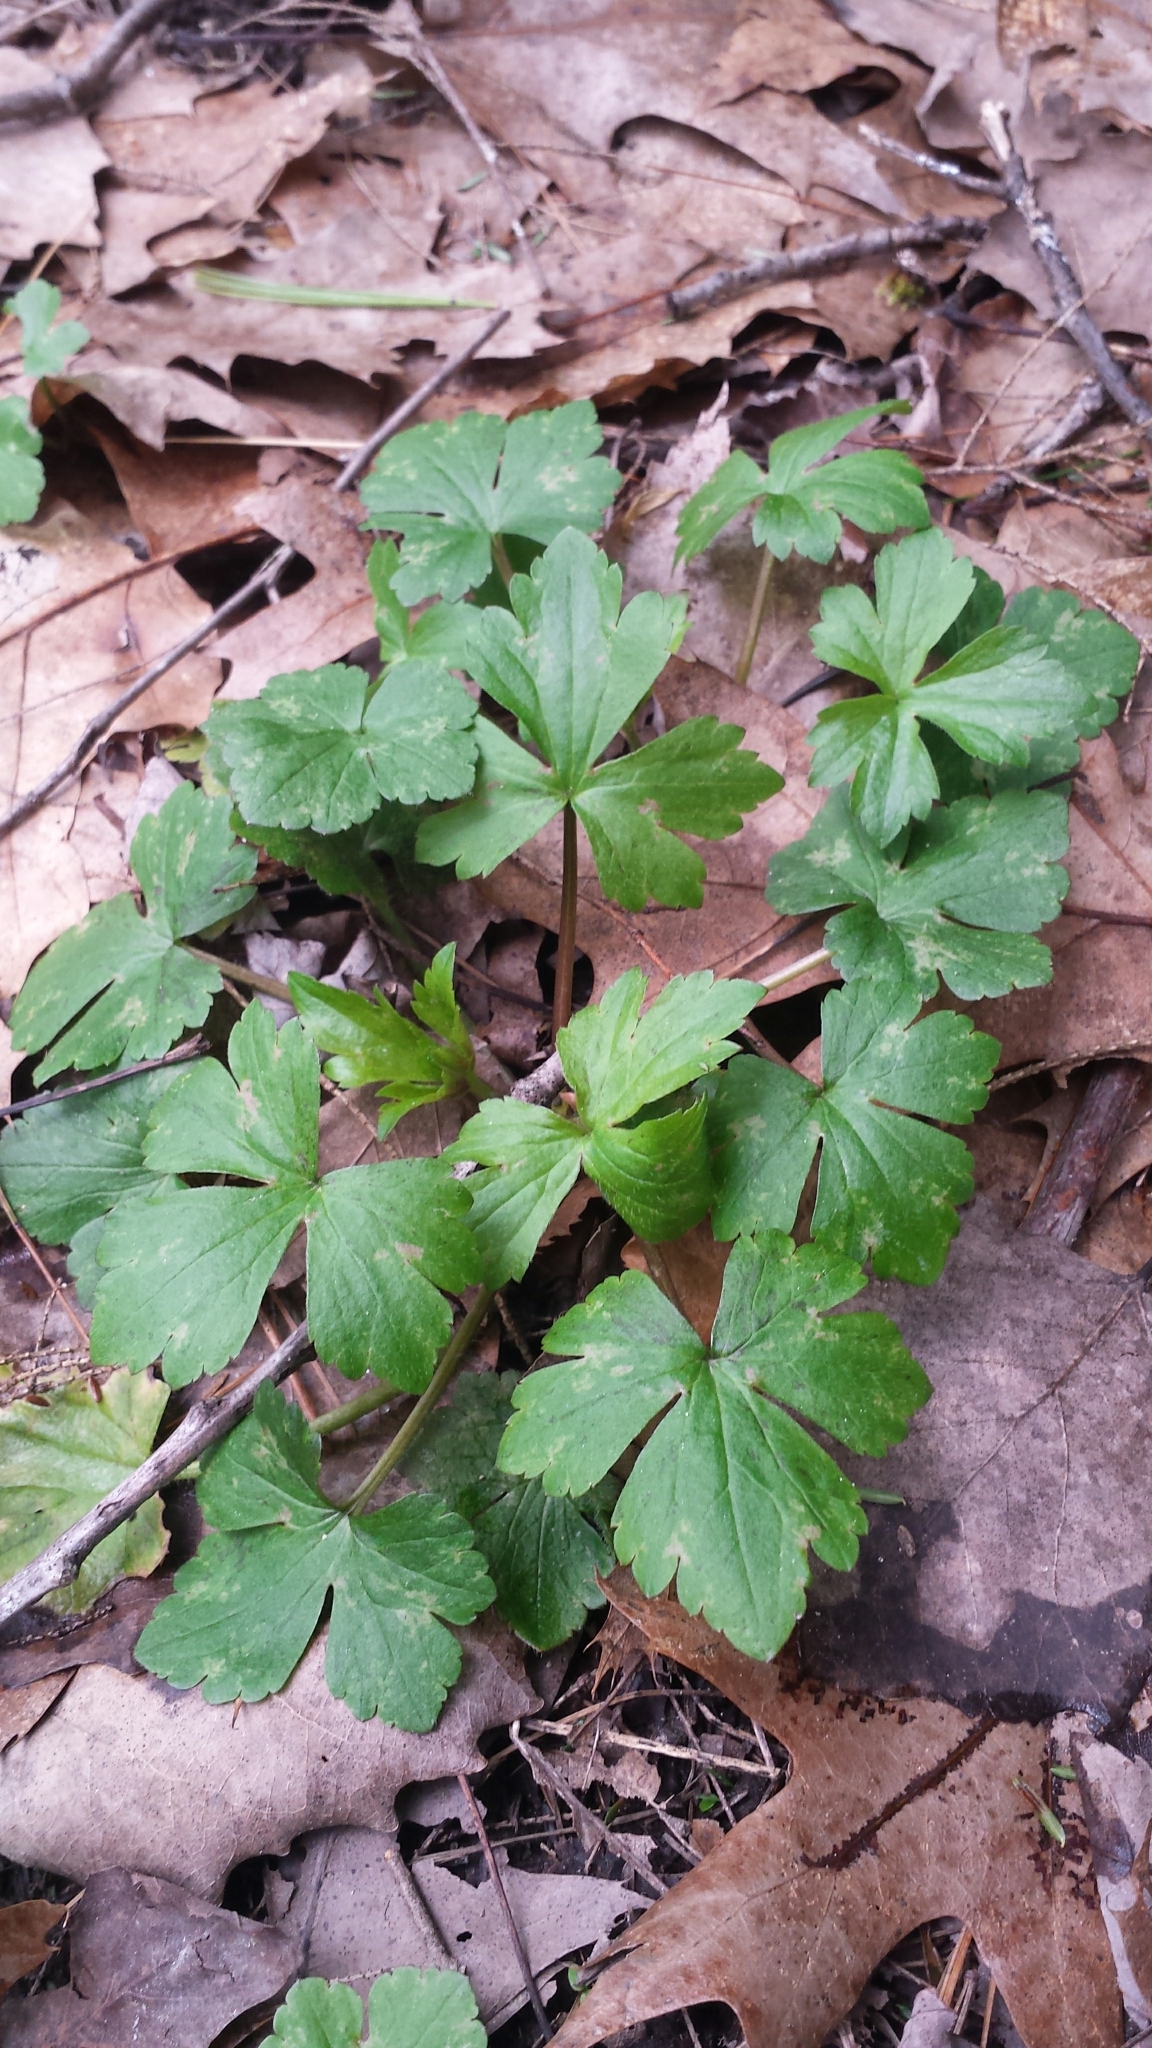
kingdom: Plantae
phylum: Tracheophyta
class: Magnoliopsida
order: Ranunculales
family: Ranunculaceae
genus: Ranunculus
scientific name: Ranunculus recurvatus
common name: Blisterwort
